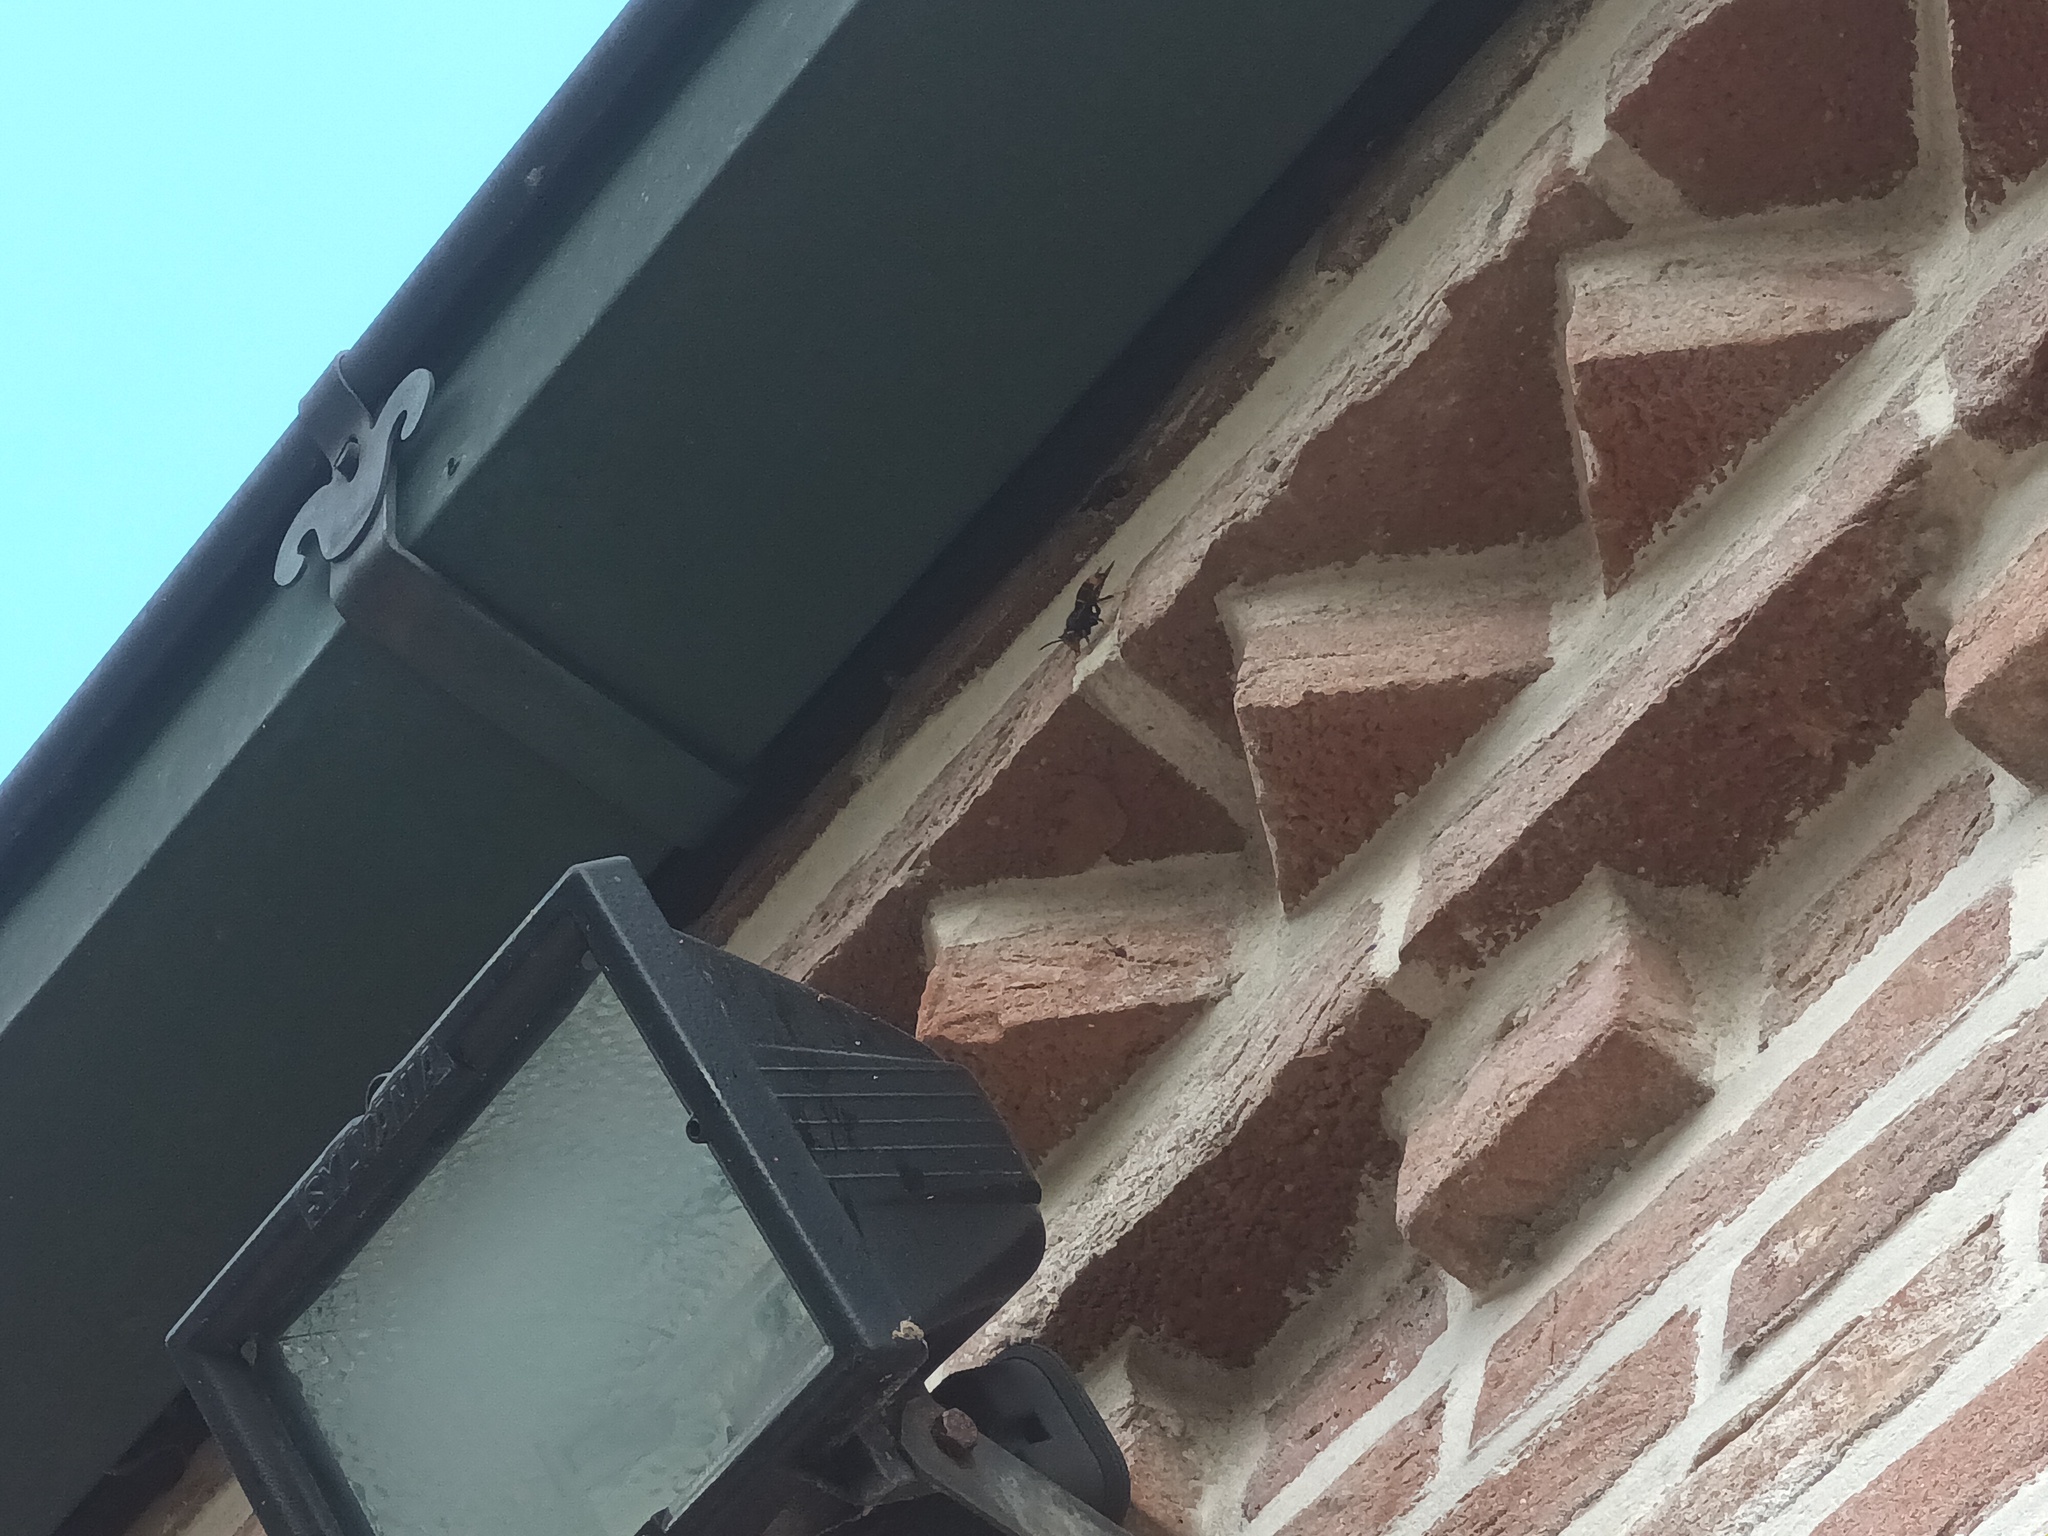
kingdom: Animalia
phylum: Arthropoda
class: Insecta
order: Hymenoptera
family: Vespidae
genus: Vespa
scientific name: Vespa velutina
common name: Asian hornet
